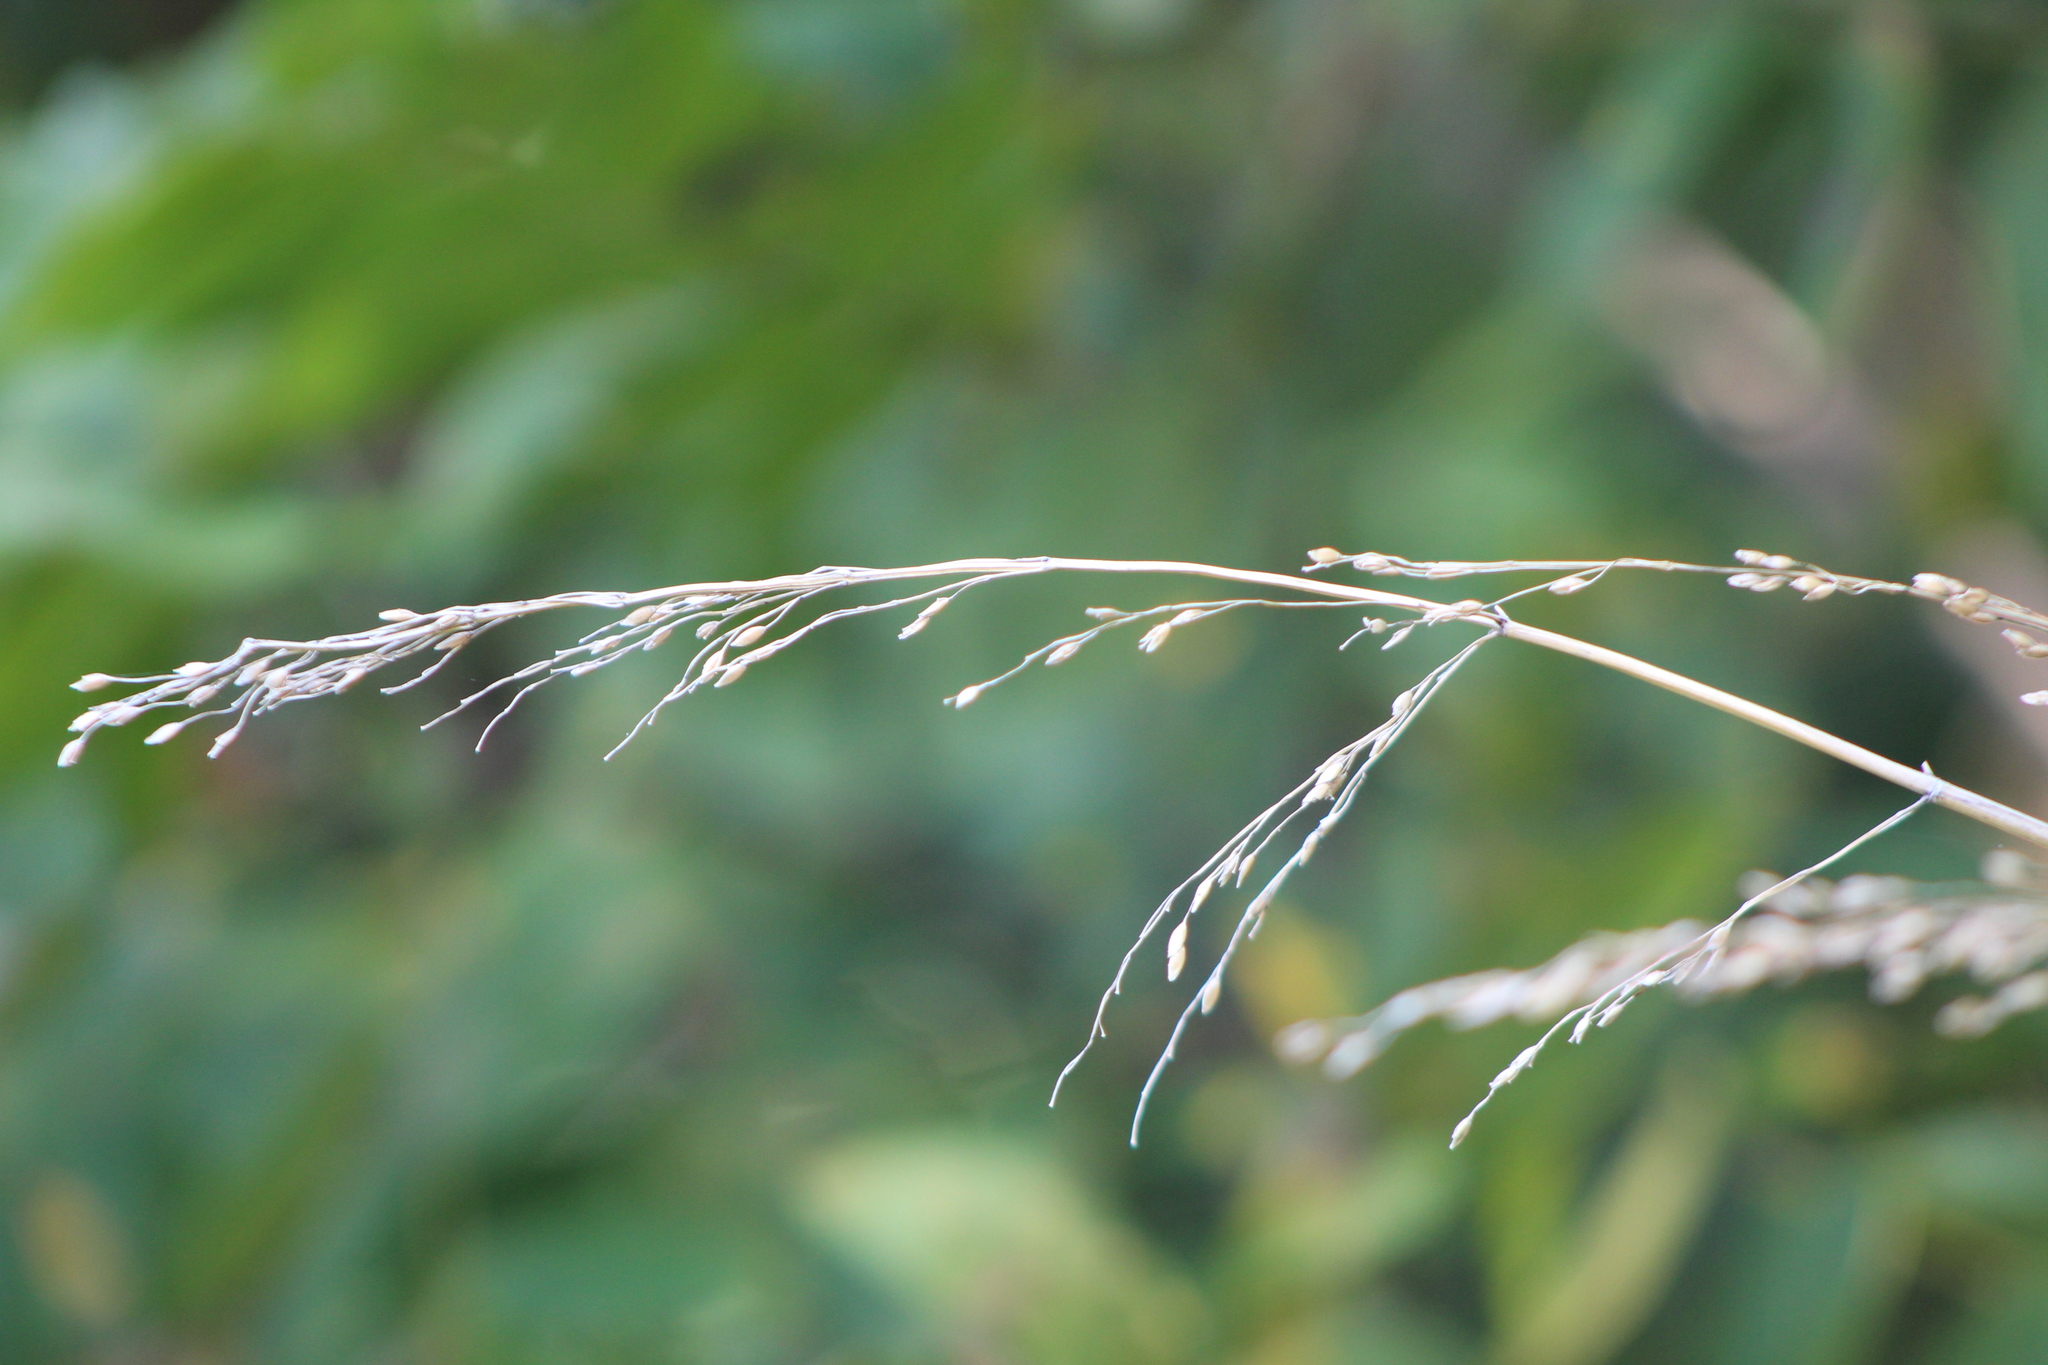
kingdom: Plantae
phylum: Tracheophyta
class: Liliopsida
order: Poales
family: Poaceae
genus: Sorghum
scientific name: Sorghum halepense
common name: Johnson-grass
